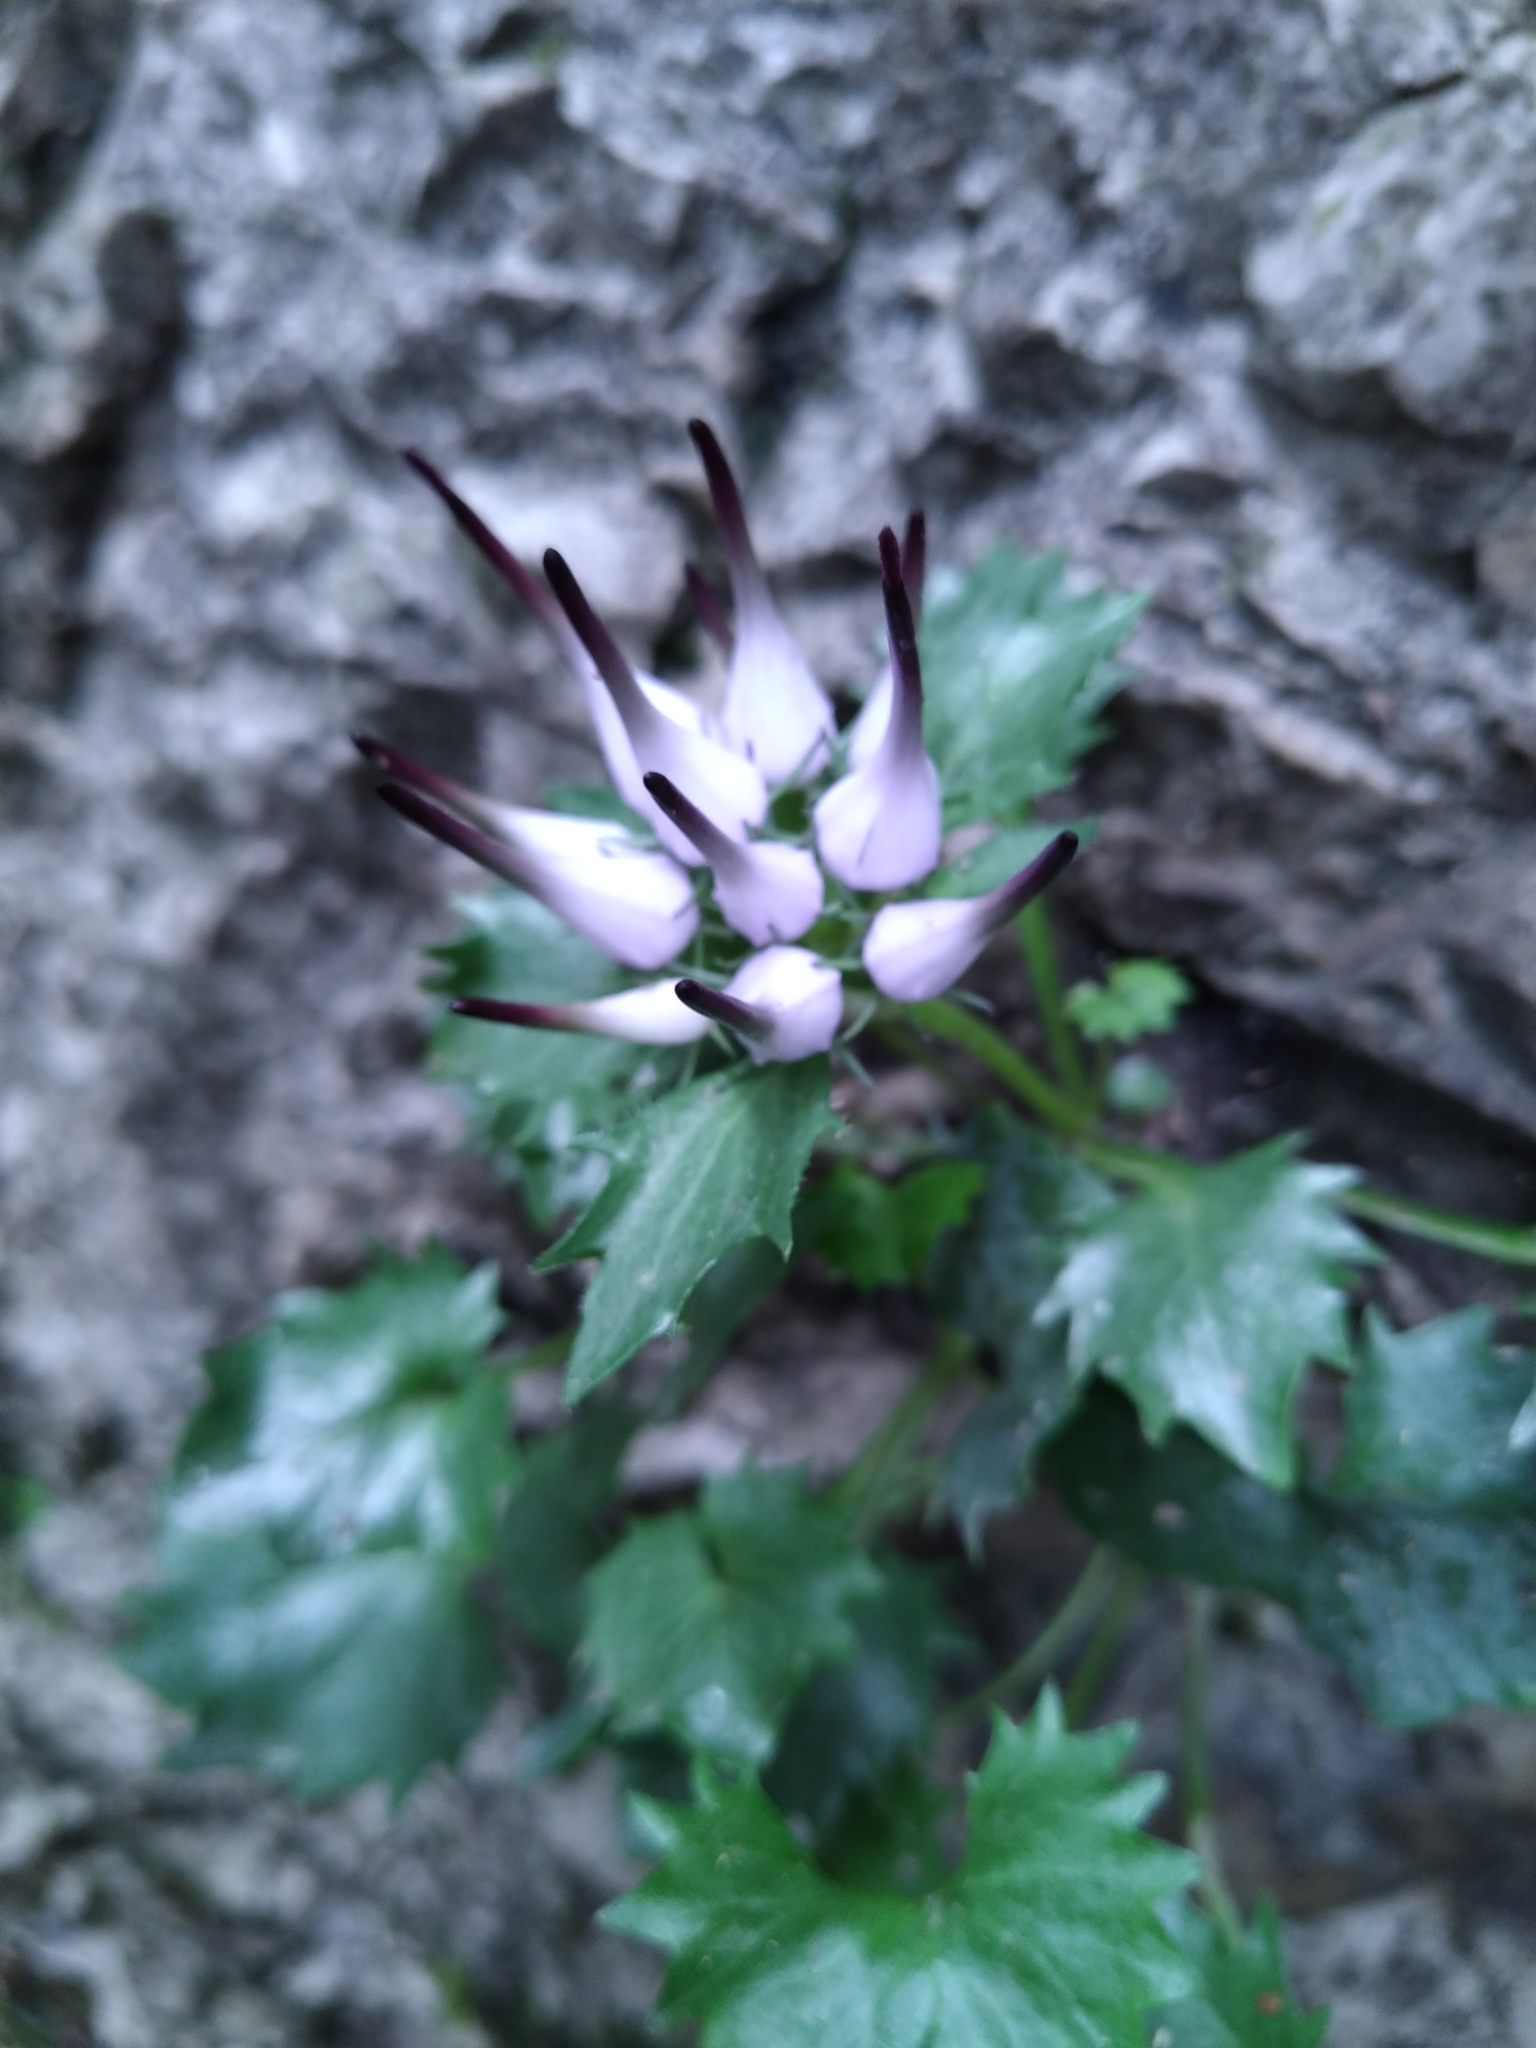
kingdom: Plantae
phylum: Tracheophyta
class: Magnoliopsida
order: Asterales
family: Campanulaceae
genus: Physoplexis
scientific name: Physoplexis comosa
